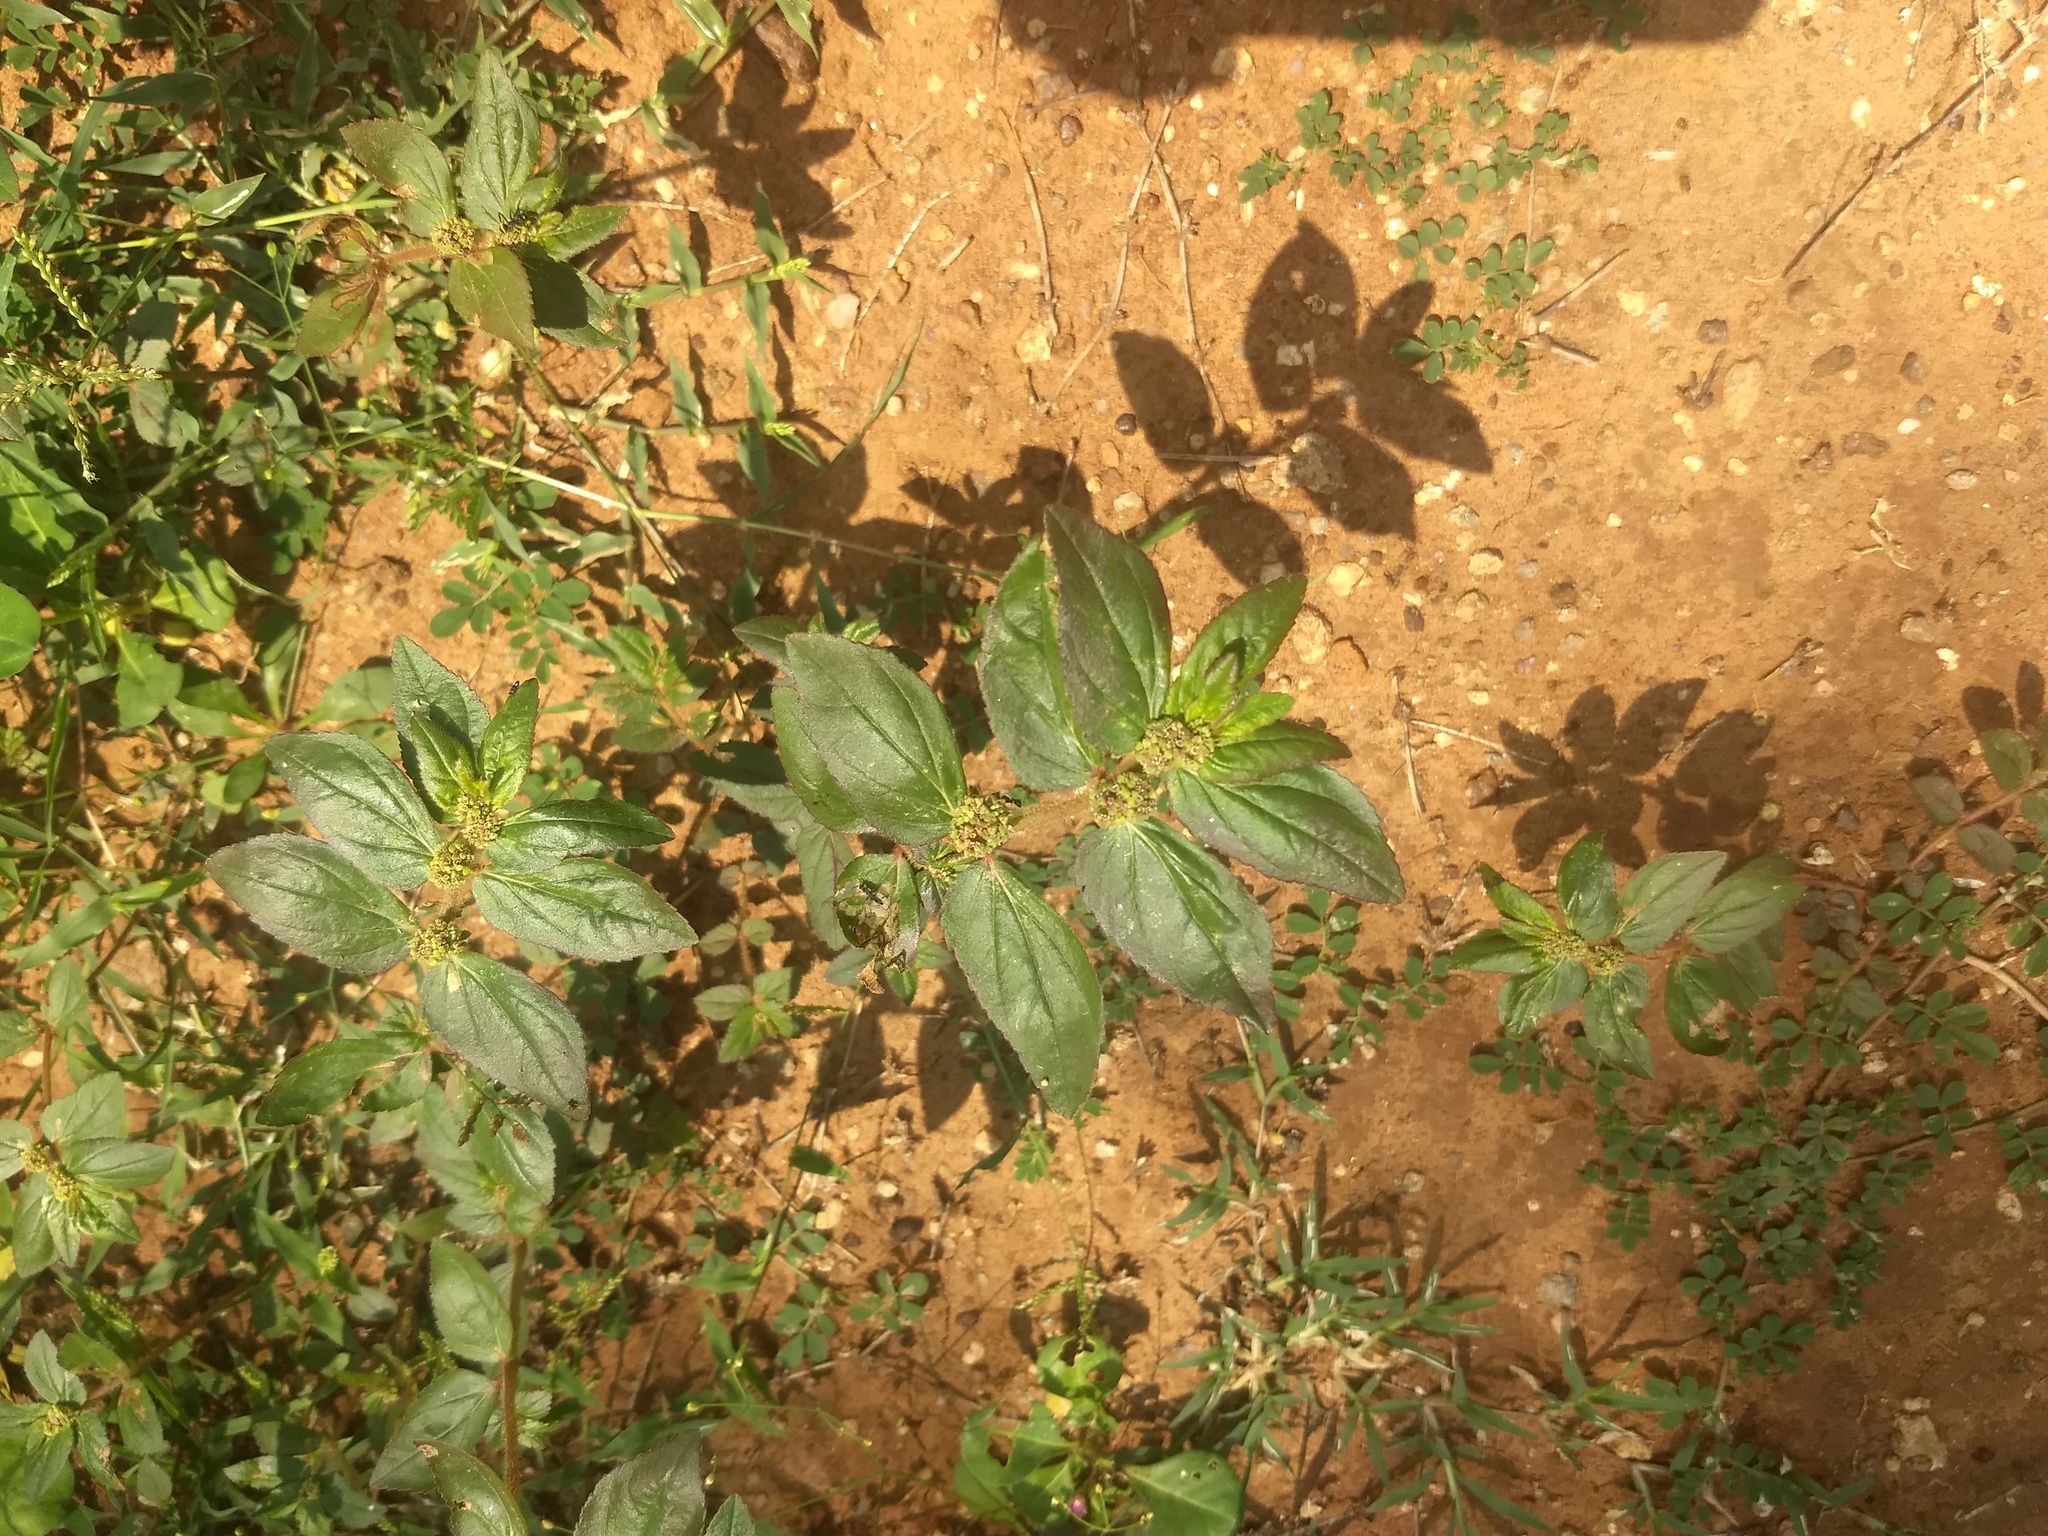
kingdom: Plantae
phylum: Tracheophyta
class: Magnoliopsida
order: Malpighiales
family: Euphorbiaceae
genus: Euphorbia
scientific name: Euphorbia hirta
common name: Pillpod sandmat
